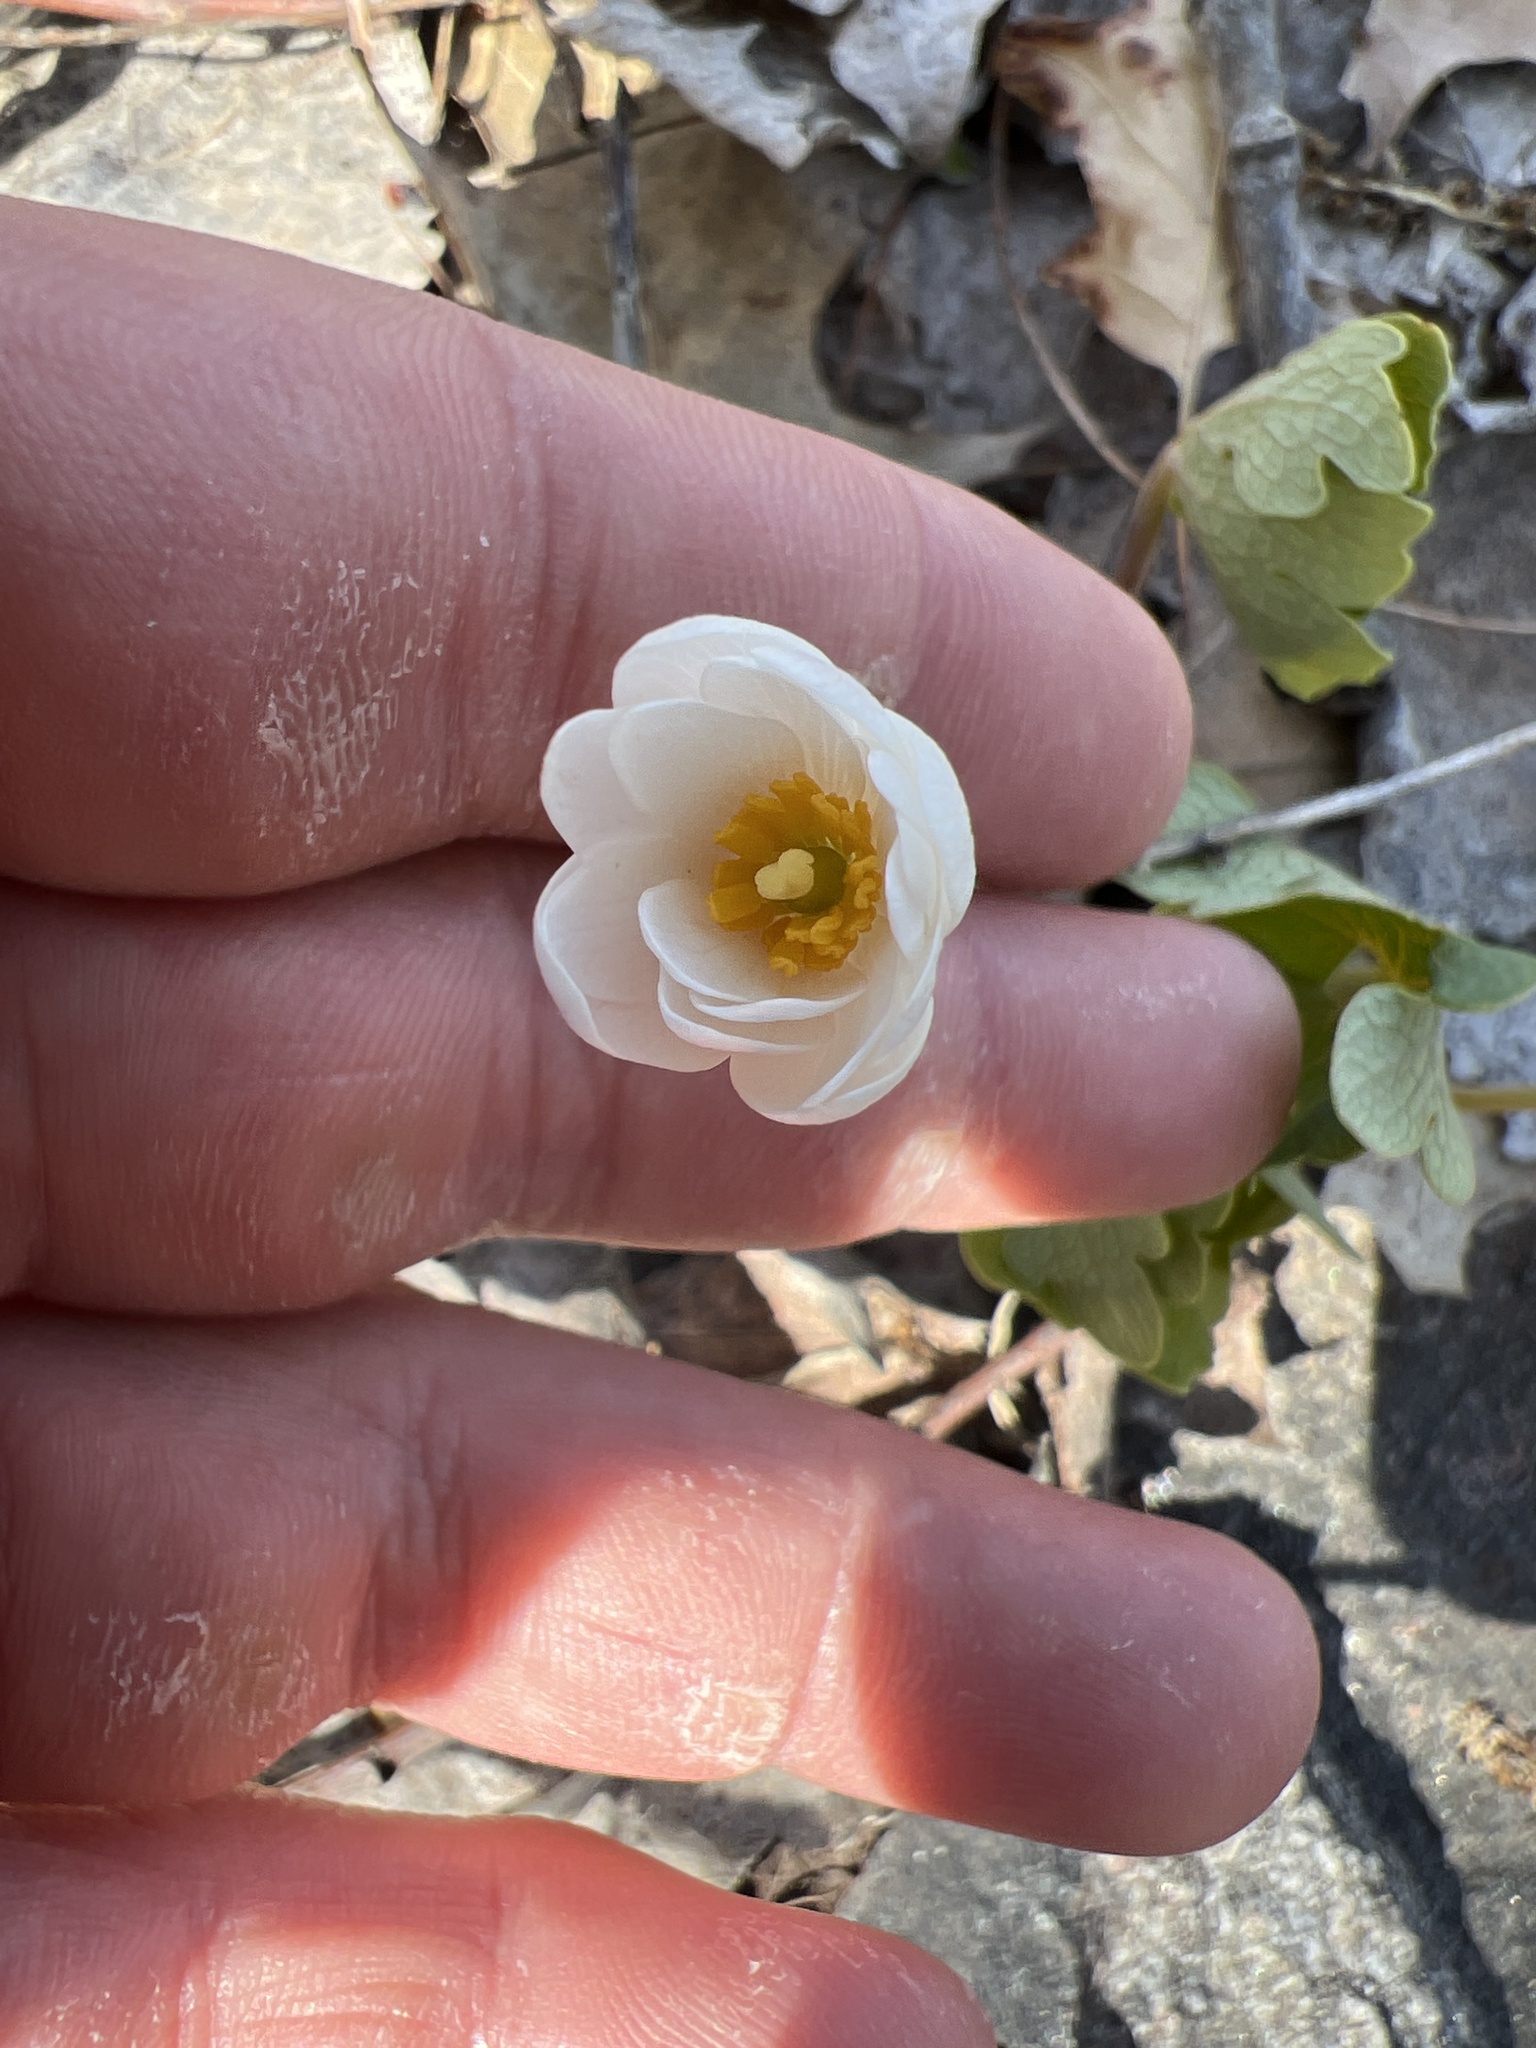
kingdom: Plantae
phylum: Tracheophyta
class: Magnoliopsida
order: Ranunculales
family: Papaveraceae
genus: Sanguinaria
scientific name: Sanguinaria canadensis
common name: Bloodroot
